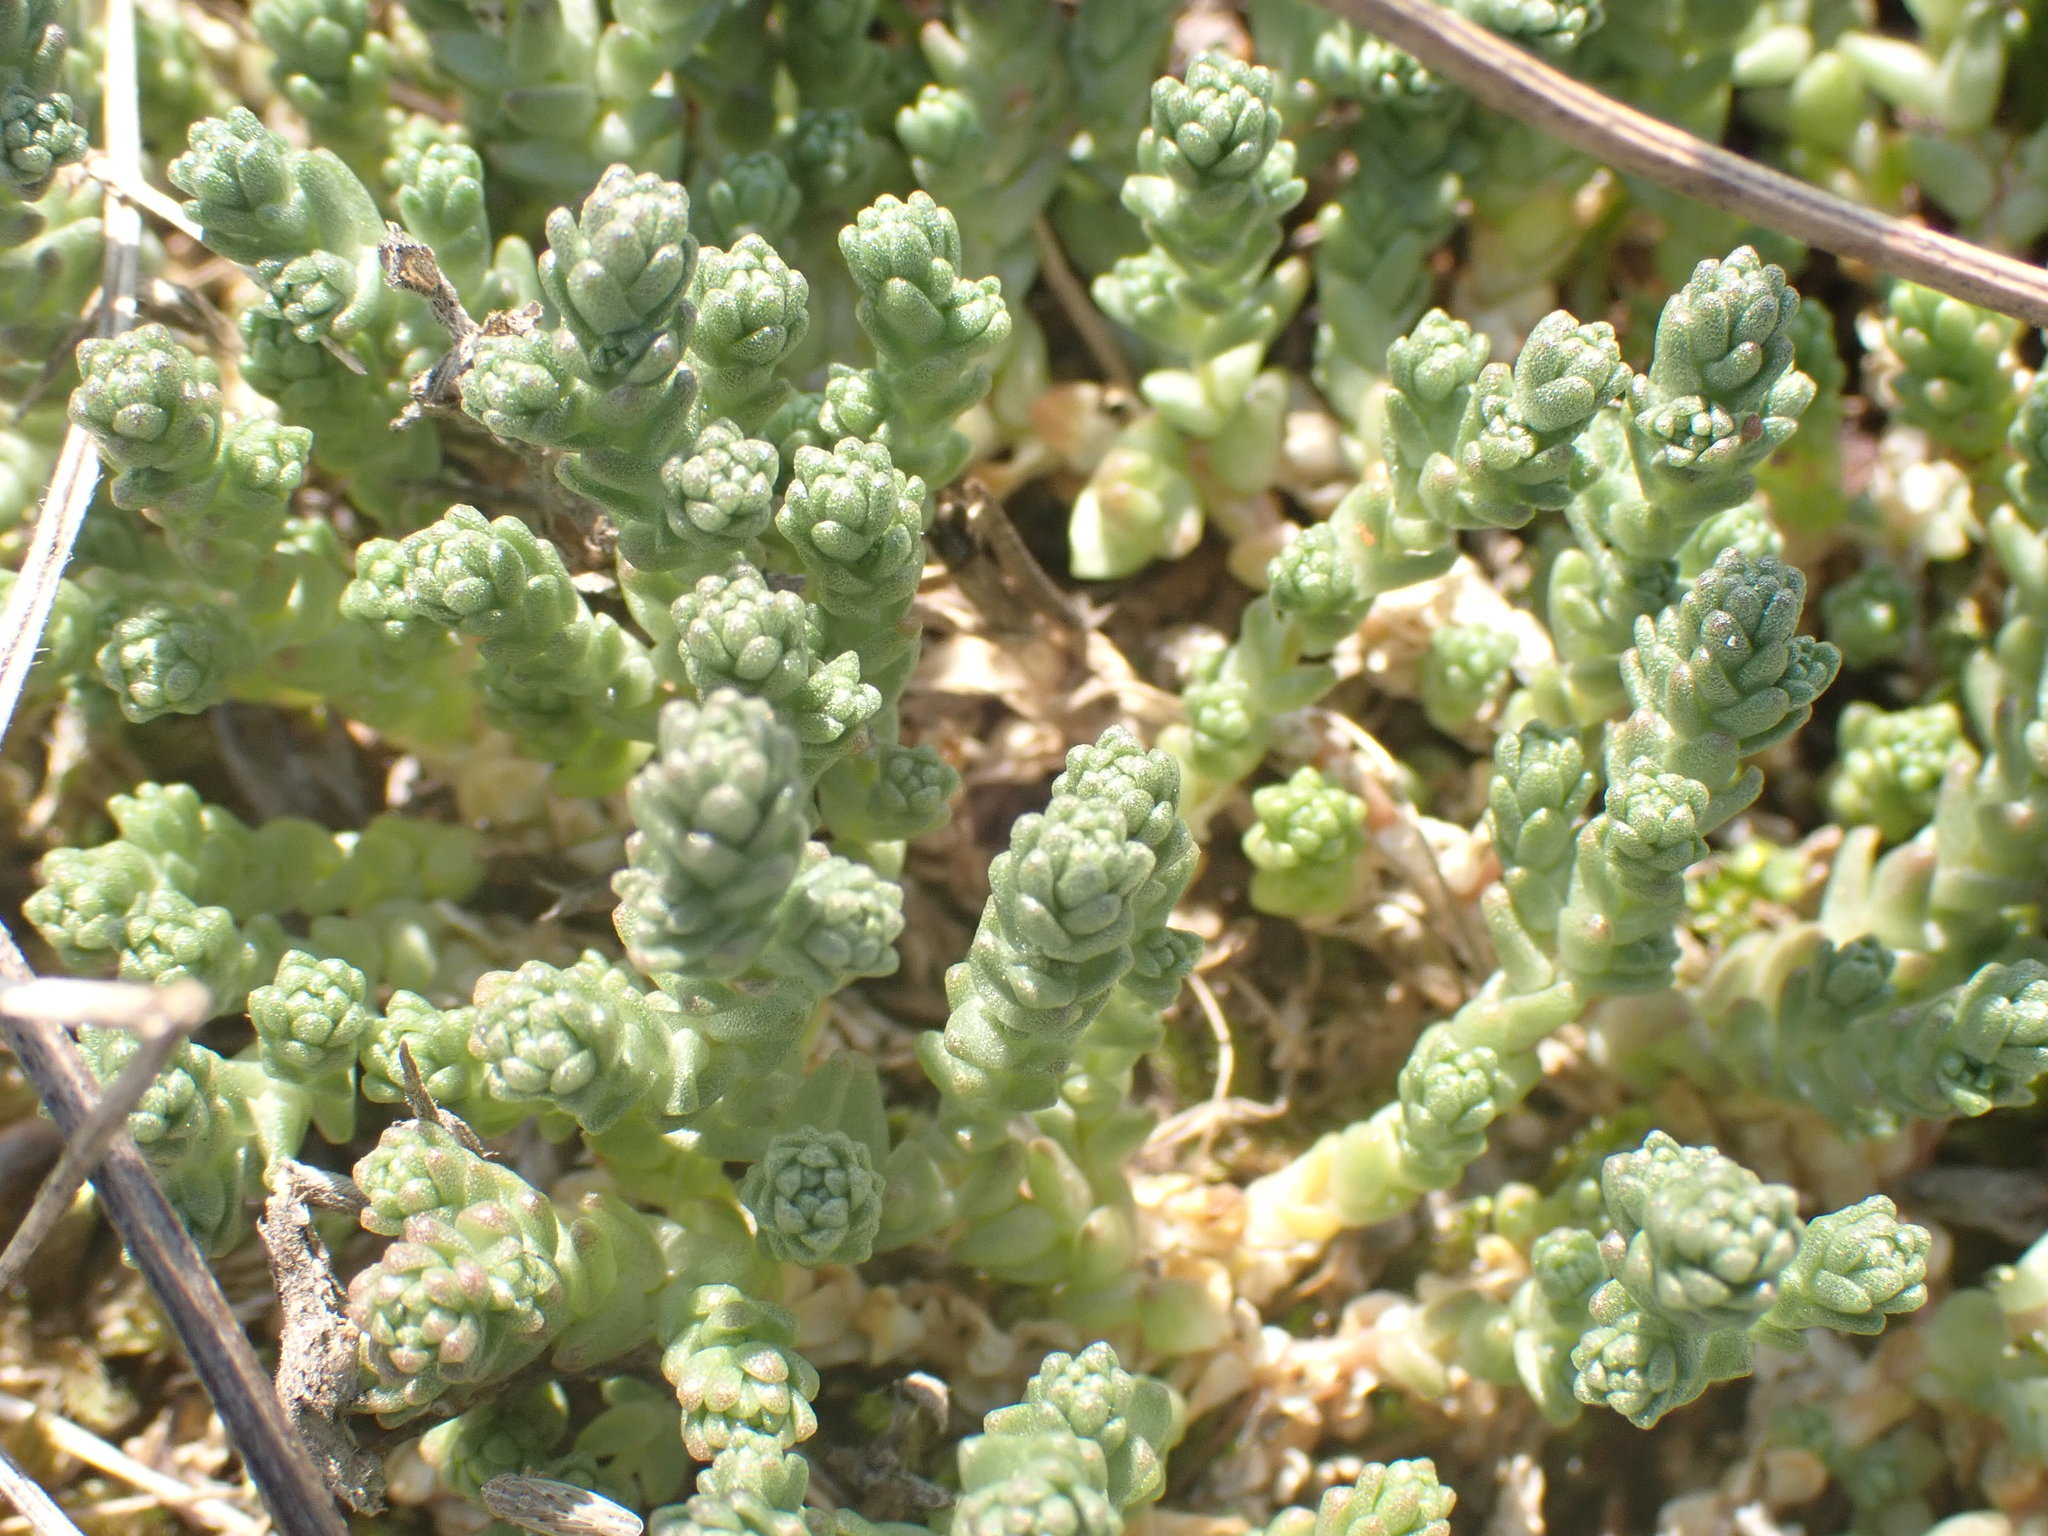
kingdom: Plantae
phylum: Tracheophyta
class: Magnoliopsida
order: Saxifragales
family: Crassulaceae
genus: Sedum
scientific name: Sedum acre
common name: Biting stonecrop
